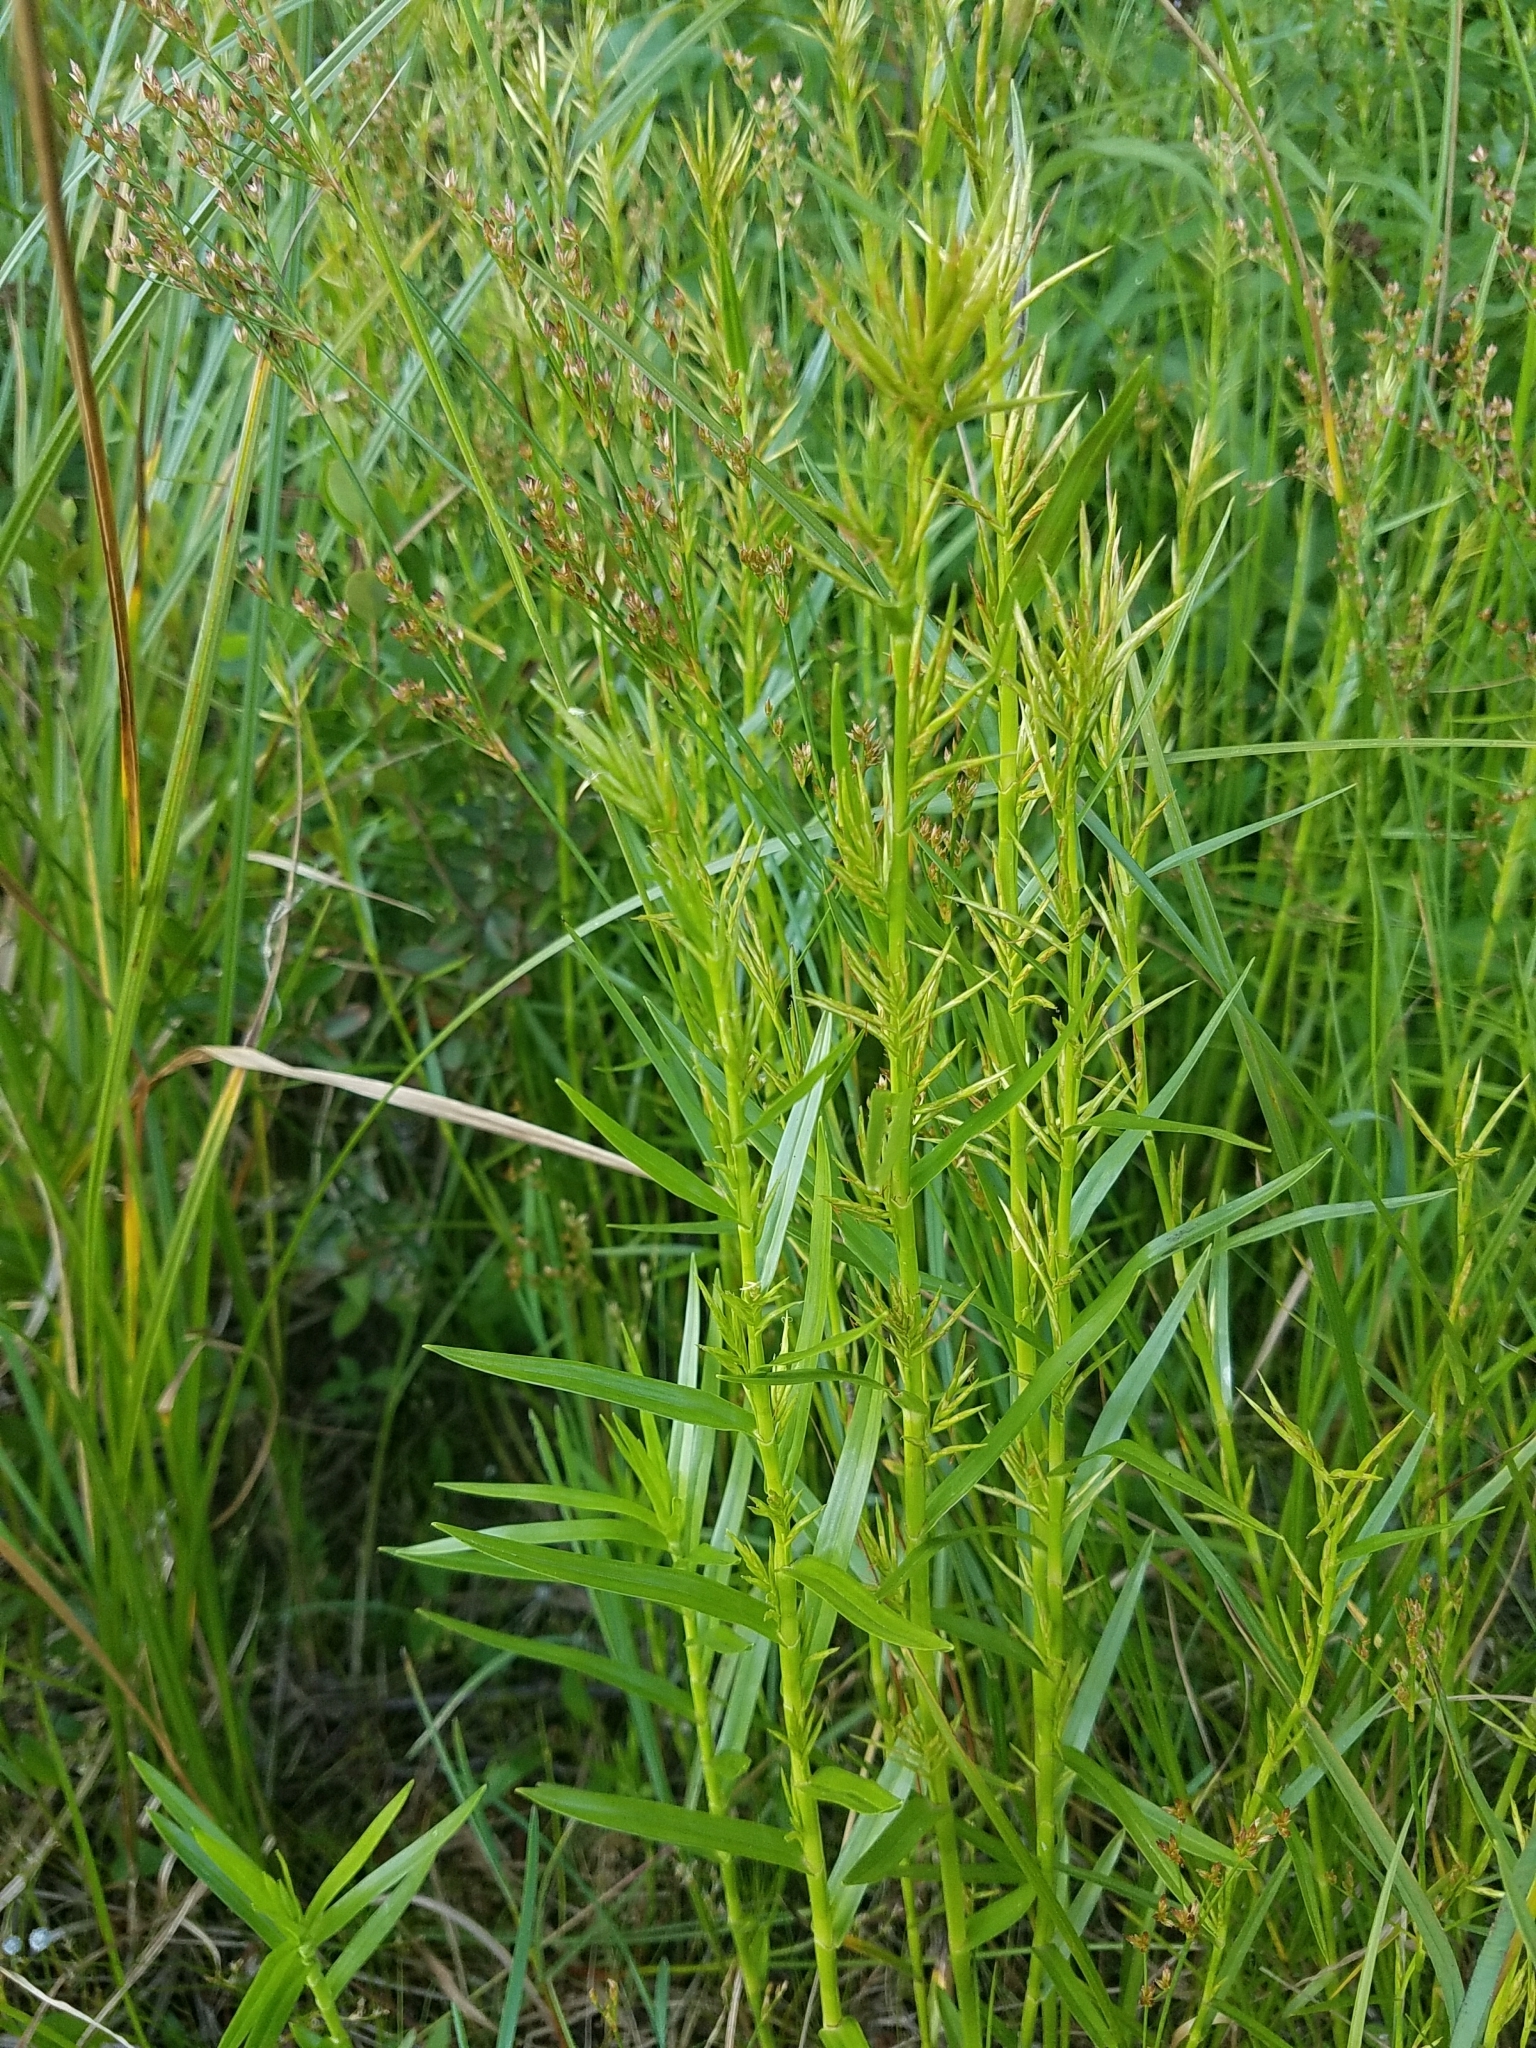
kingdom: Plantae
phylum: Tracheophyta
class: Liliopsida
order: Poales
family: Cyperaceae
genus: Dulichium
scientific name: Dulichium arundinaceum
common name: Three-way sedge
